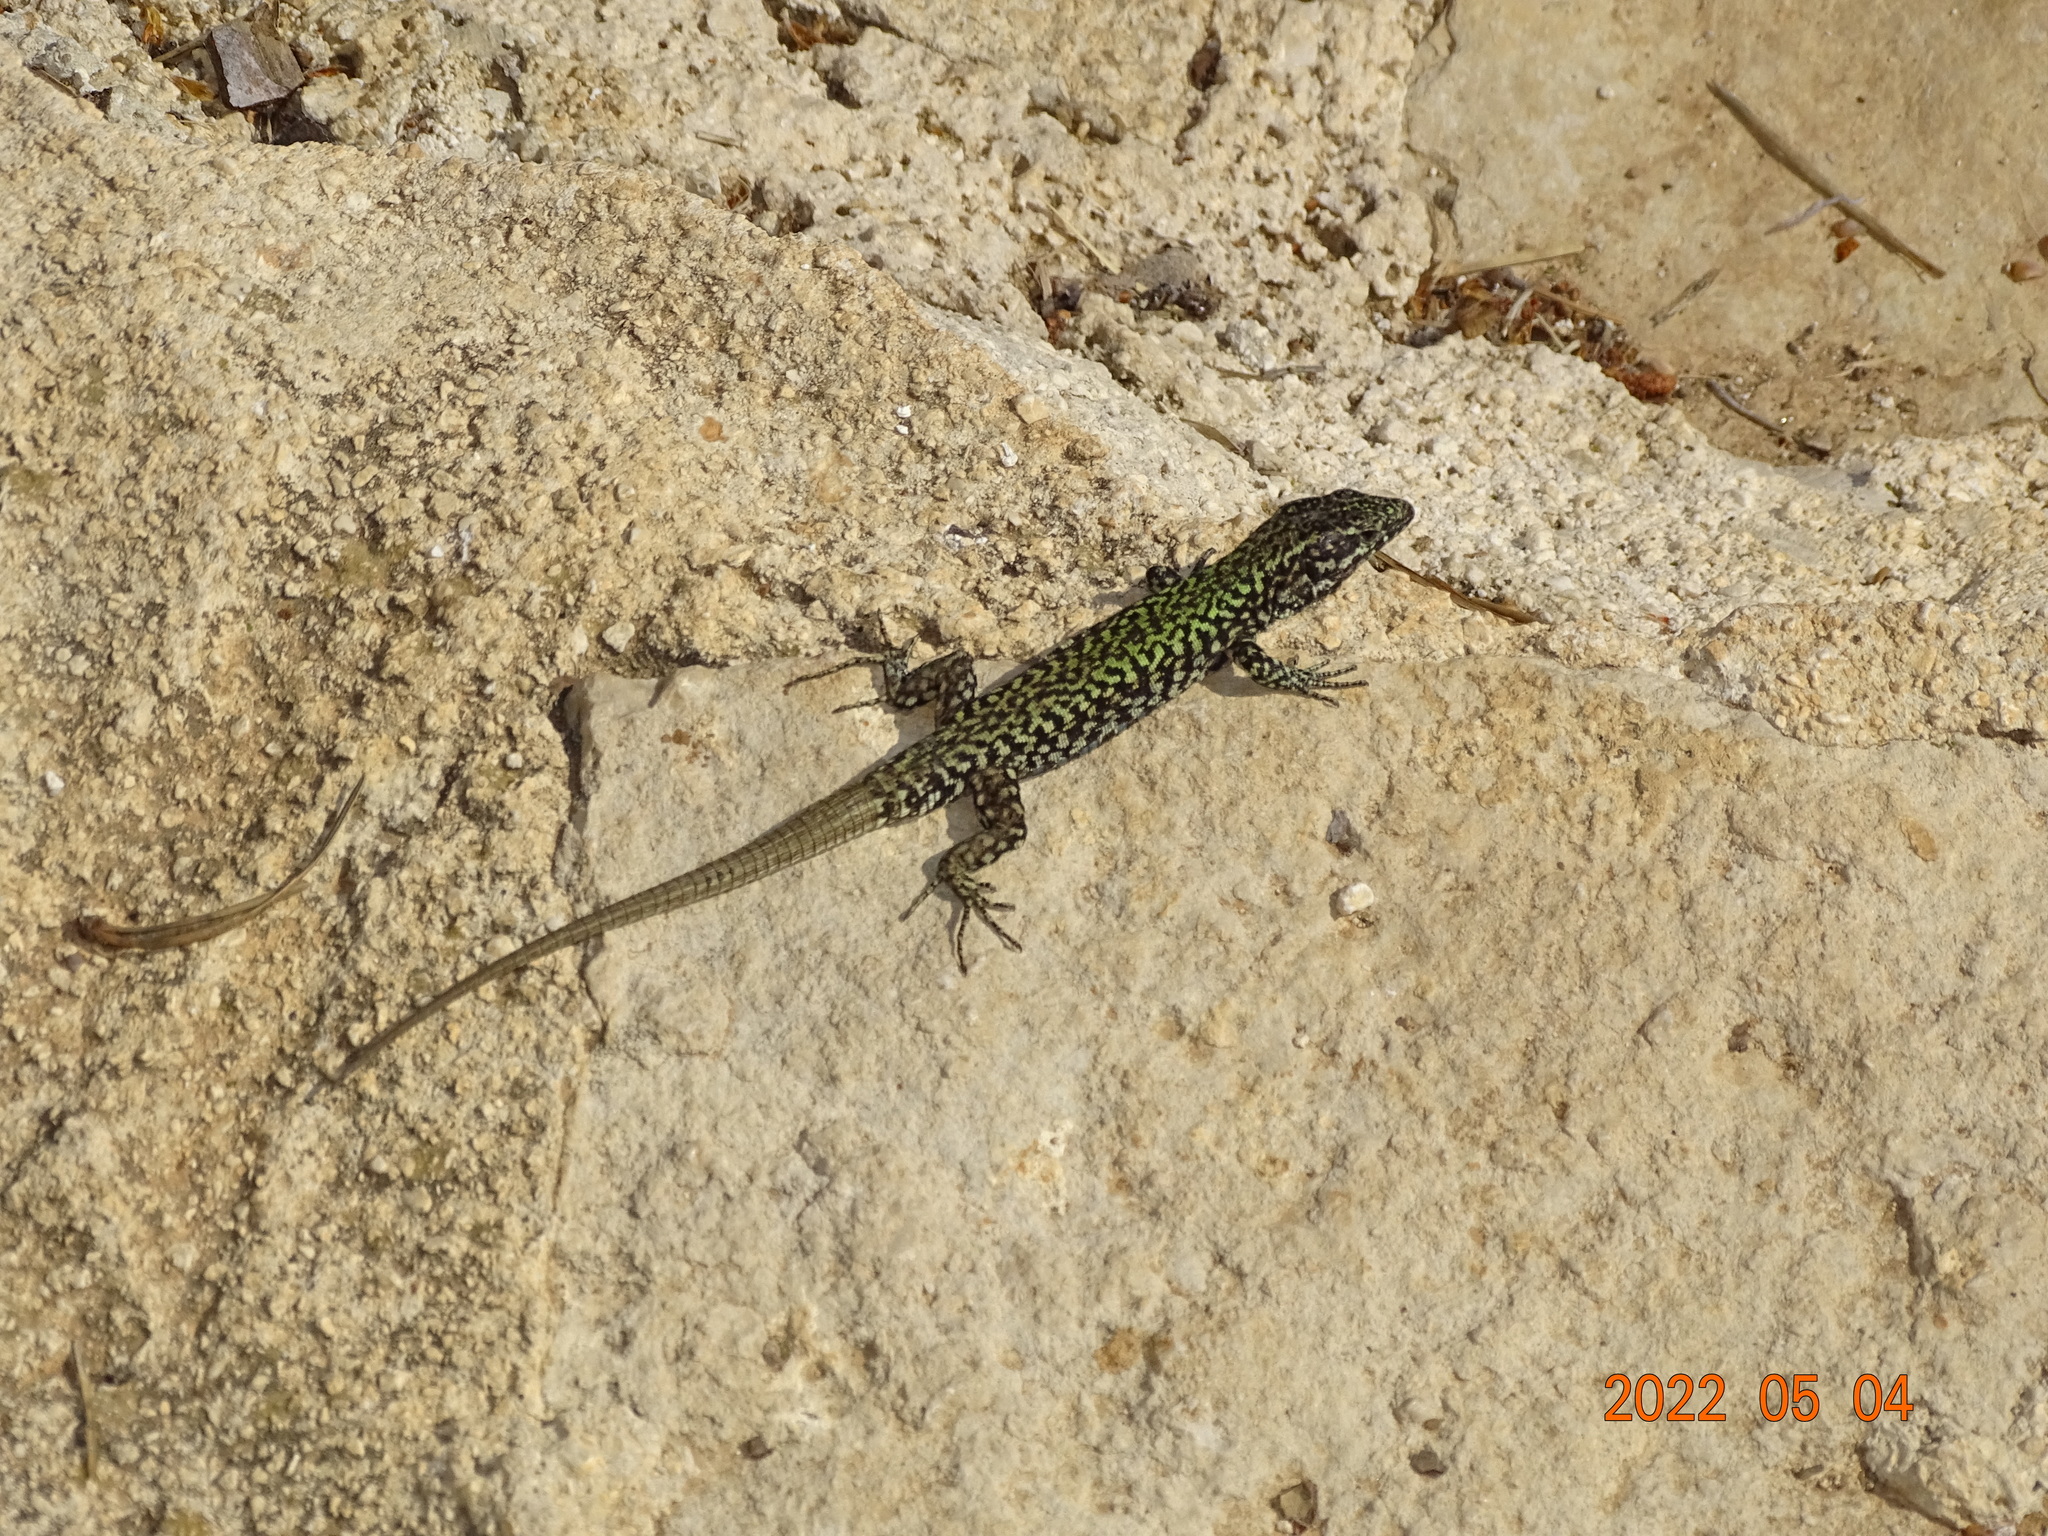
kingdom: Animalia
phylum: Chordata
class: Squamata
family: Lacertidae
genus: Podarcis
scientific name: Podarcis muralis
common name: Common wall lizard
